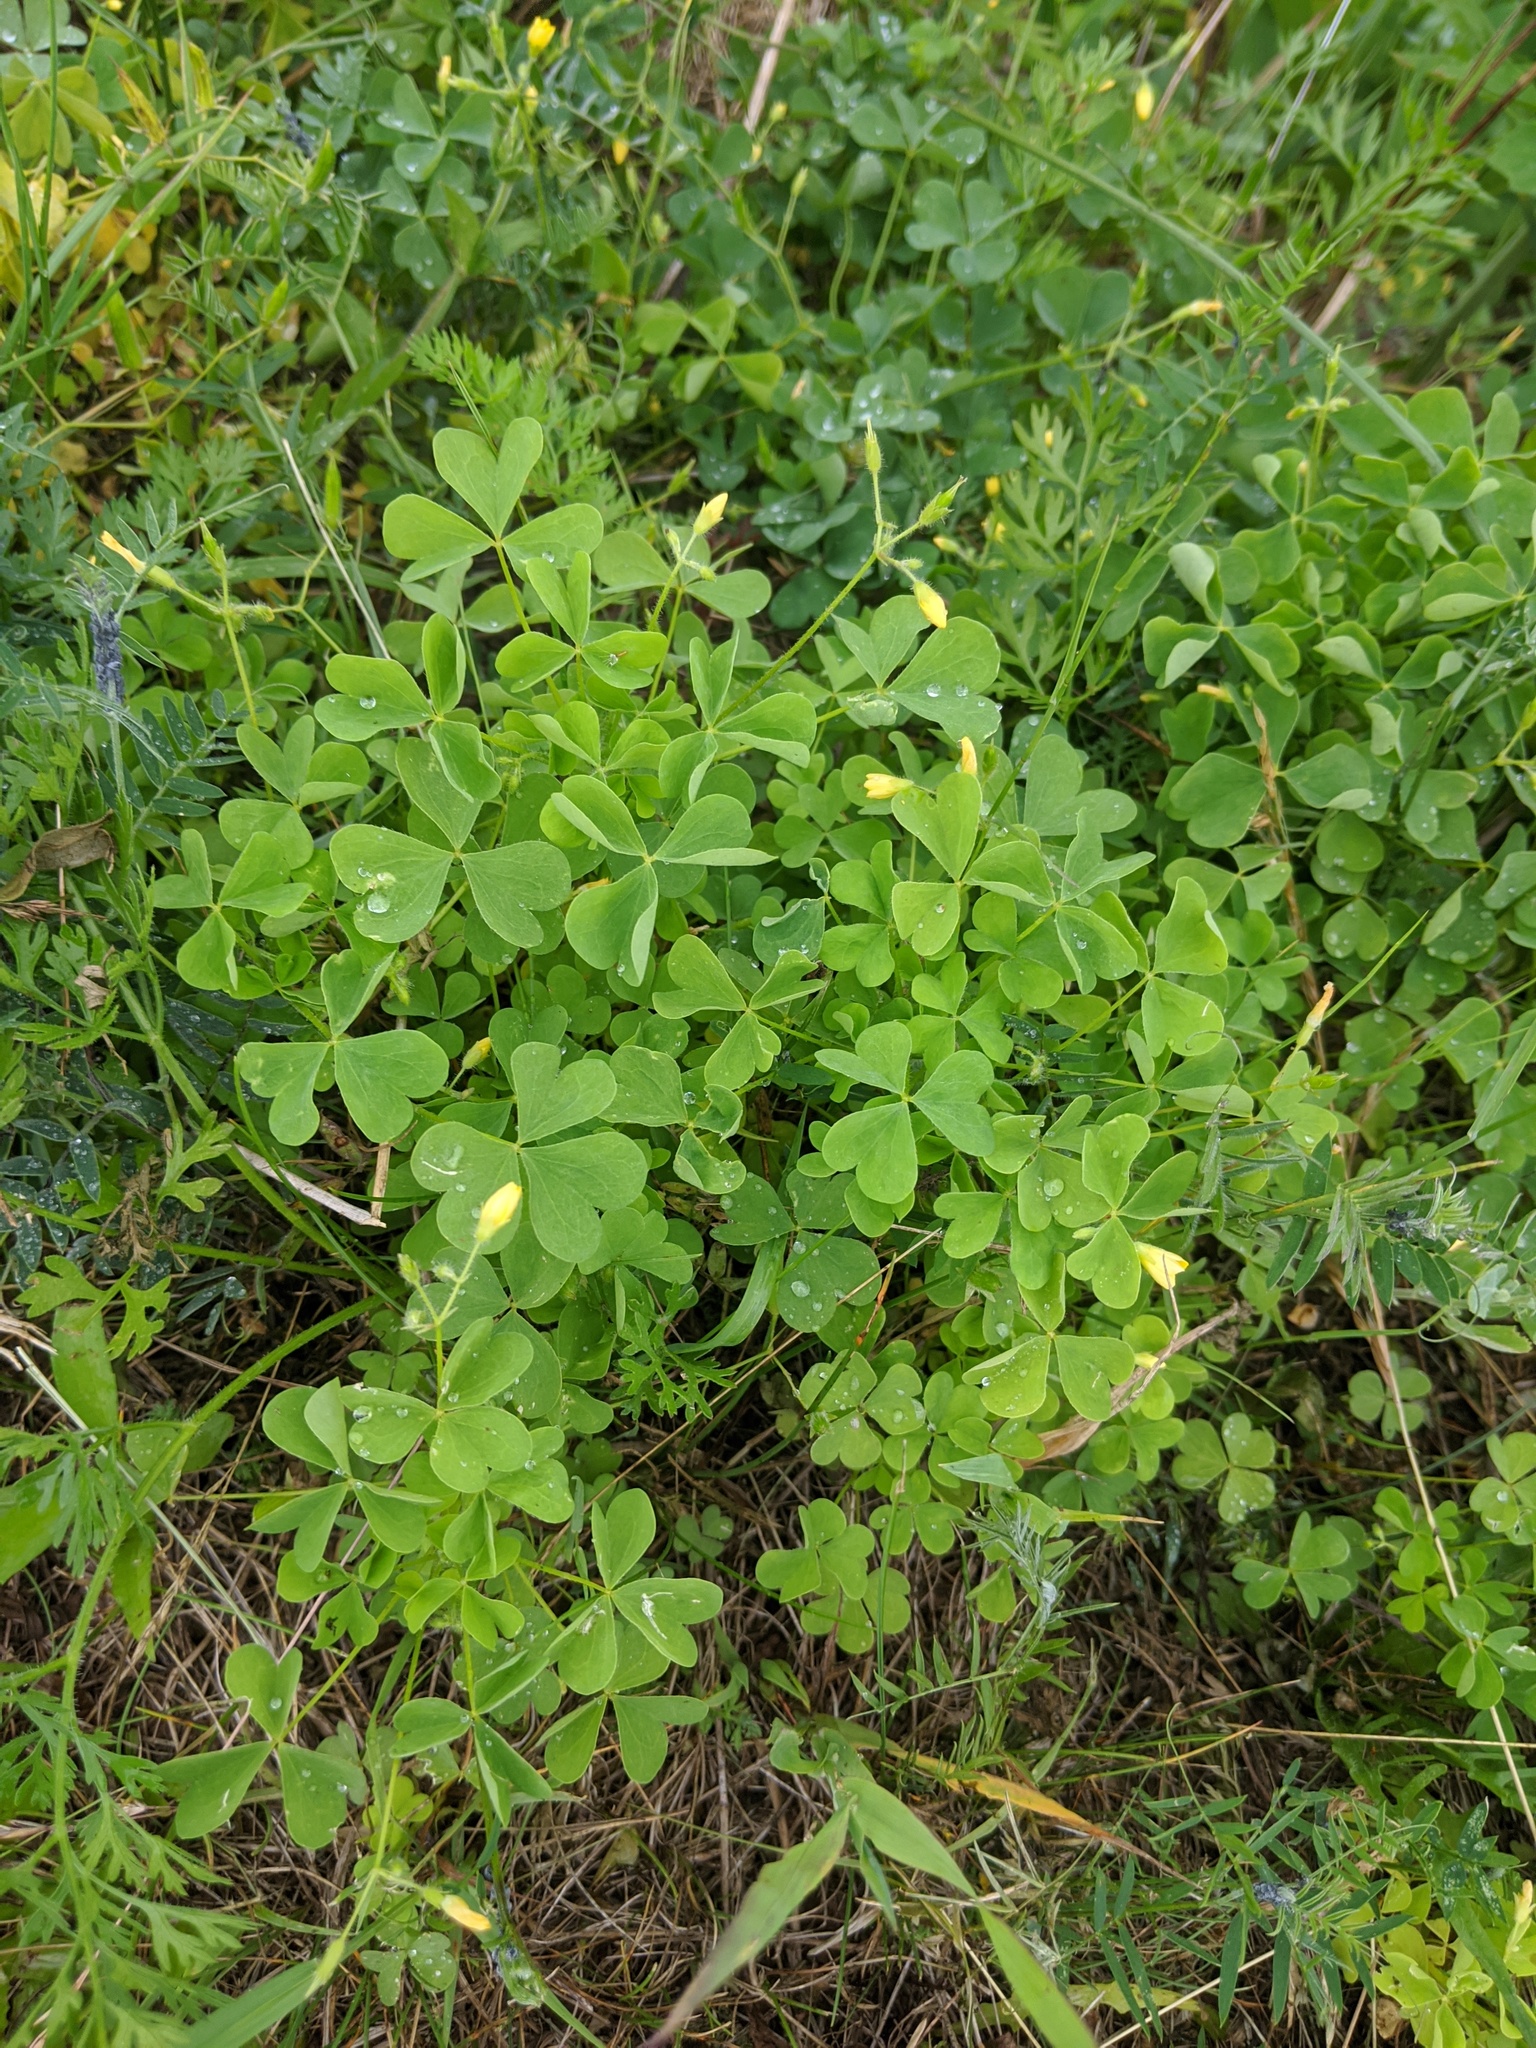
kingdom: Plantae
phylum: Tracheophyta
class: Magnoliopsida
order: Oxalidales
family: Oxalidaceae
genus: Oxalis
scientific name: Oxalis stricta
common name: Upright yellow-sorrel
